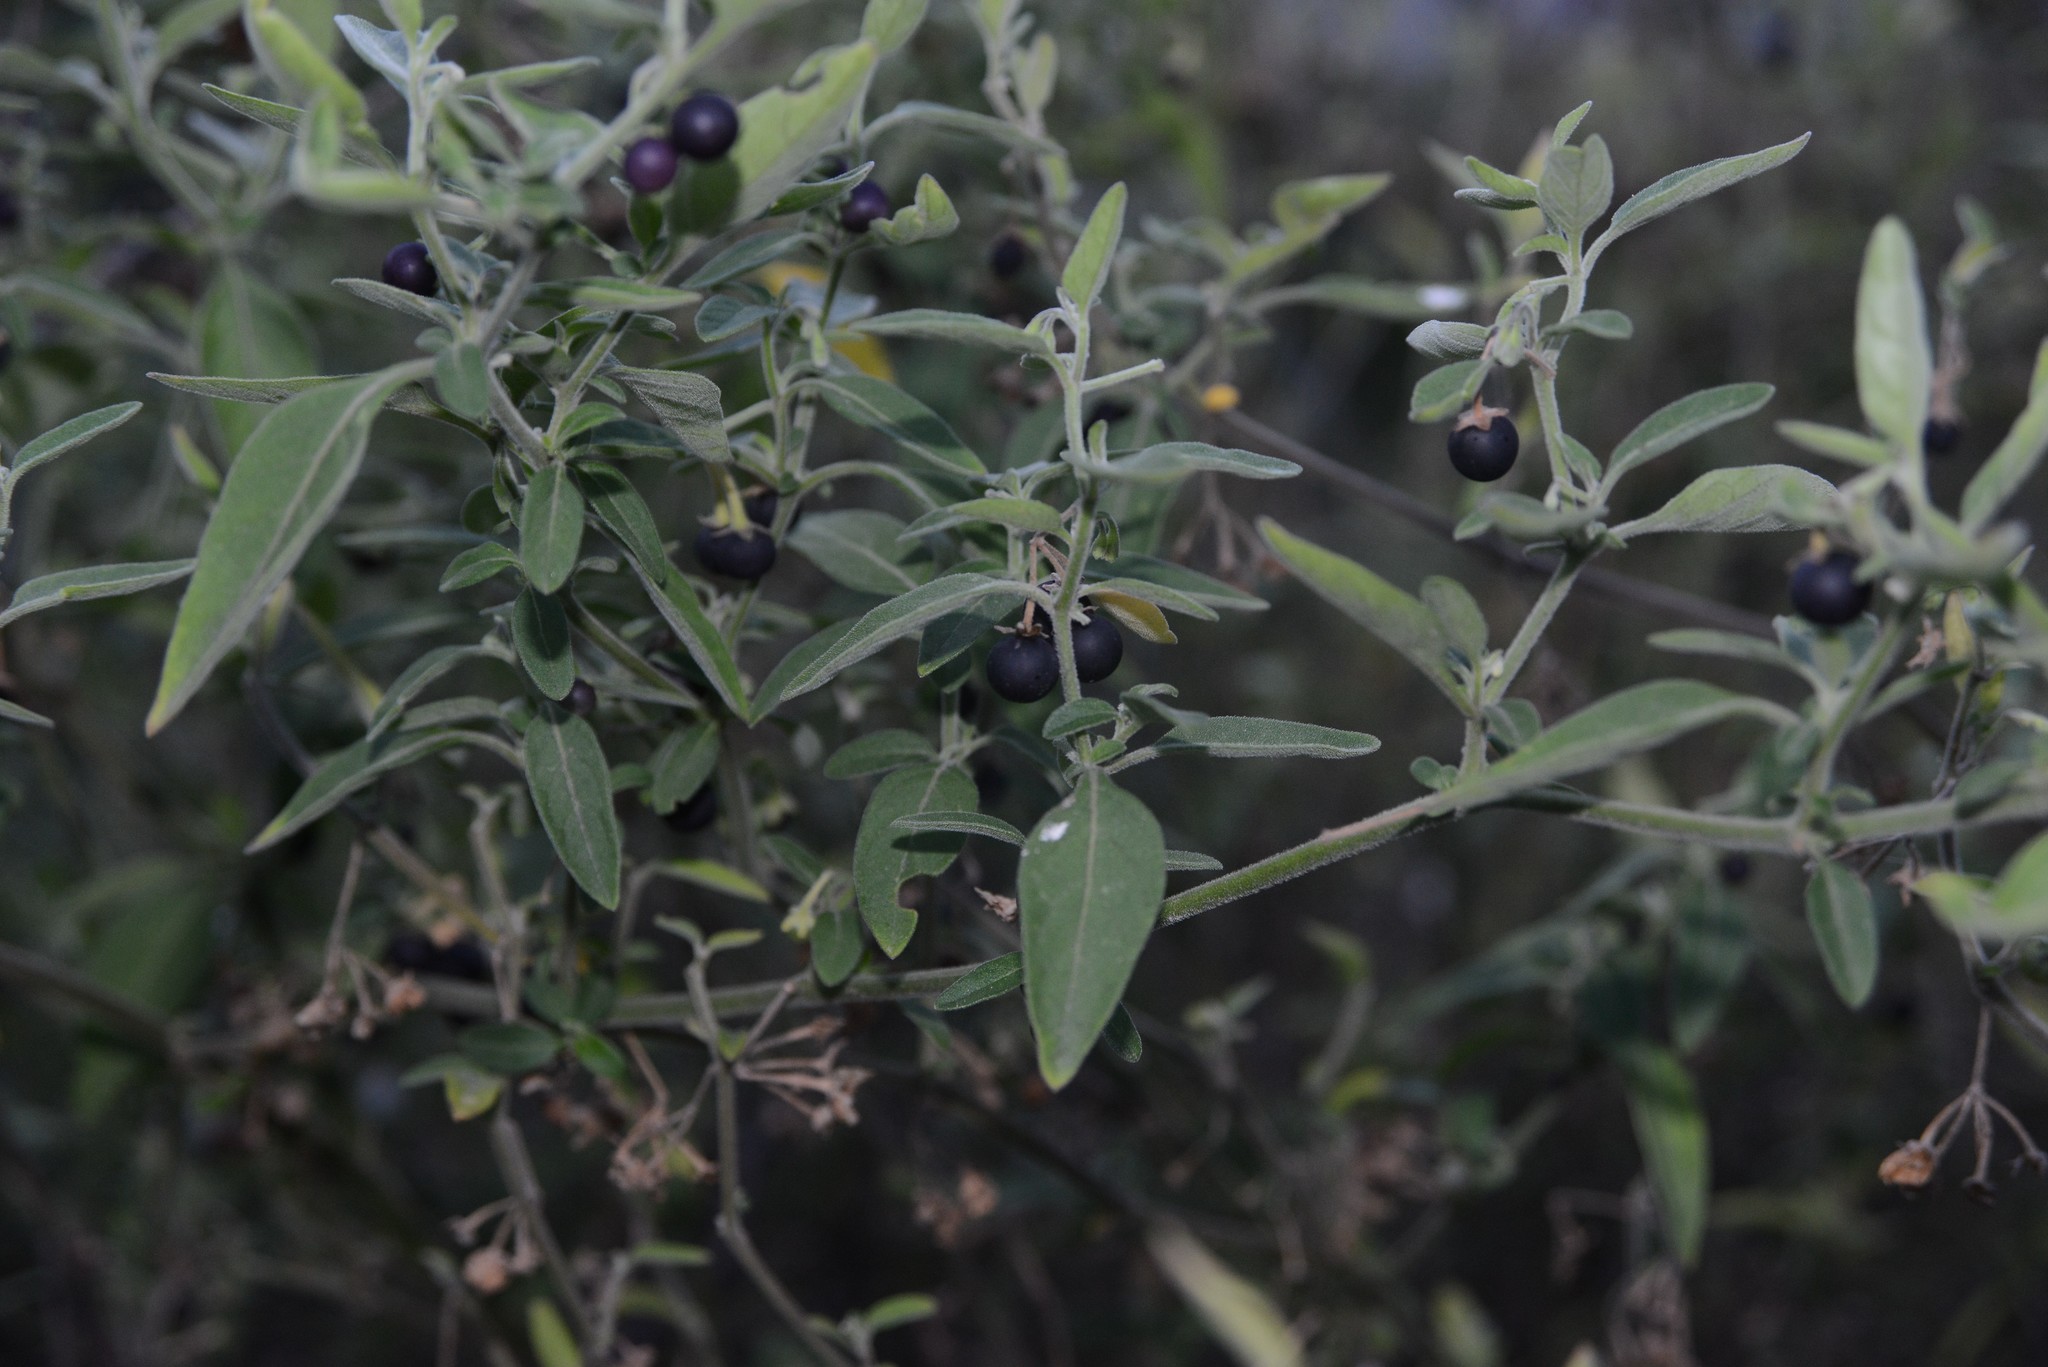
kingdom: Plantae
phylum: Tracheophyta
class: Magnoliopsida
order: Solanales
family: Solanaceae
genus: Solanum
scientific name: Solanum chenopodioides
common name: Tall nightshade
